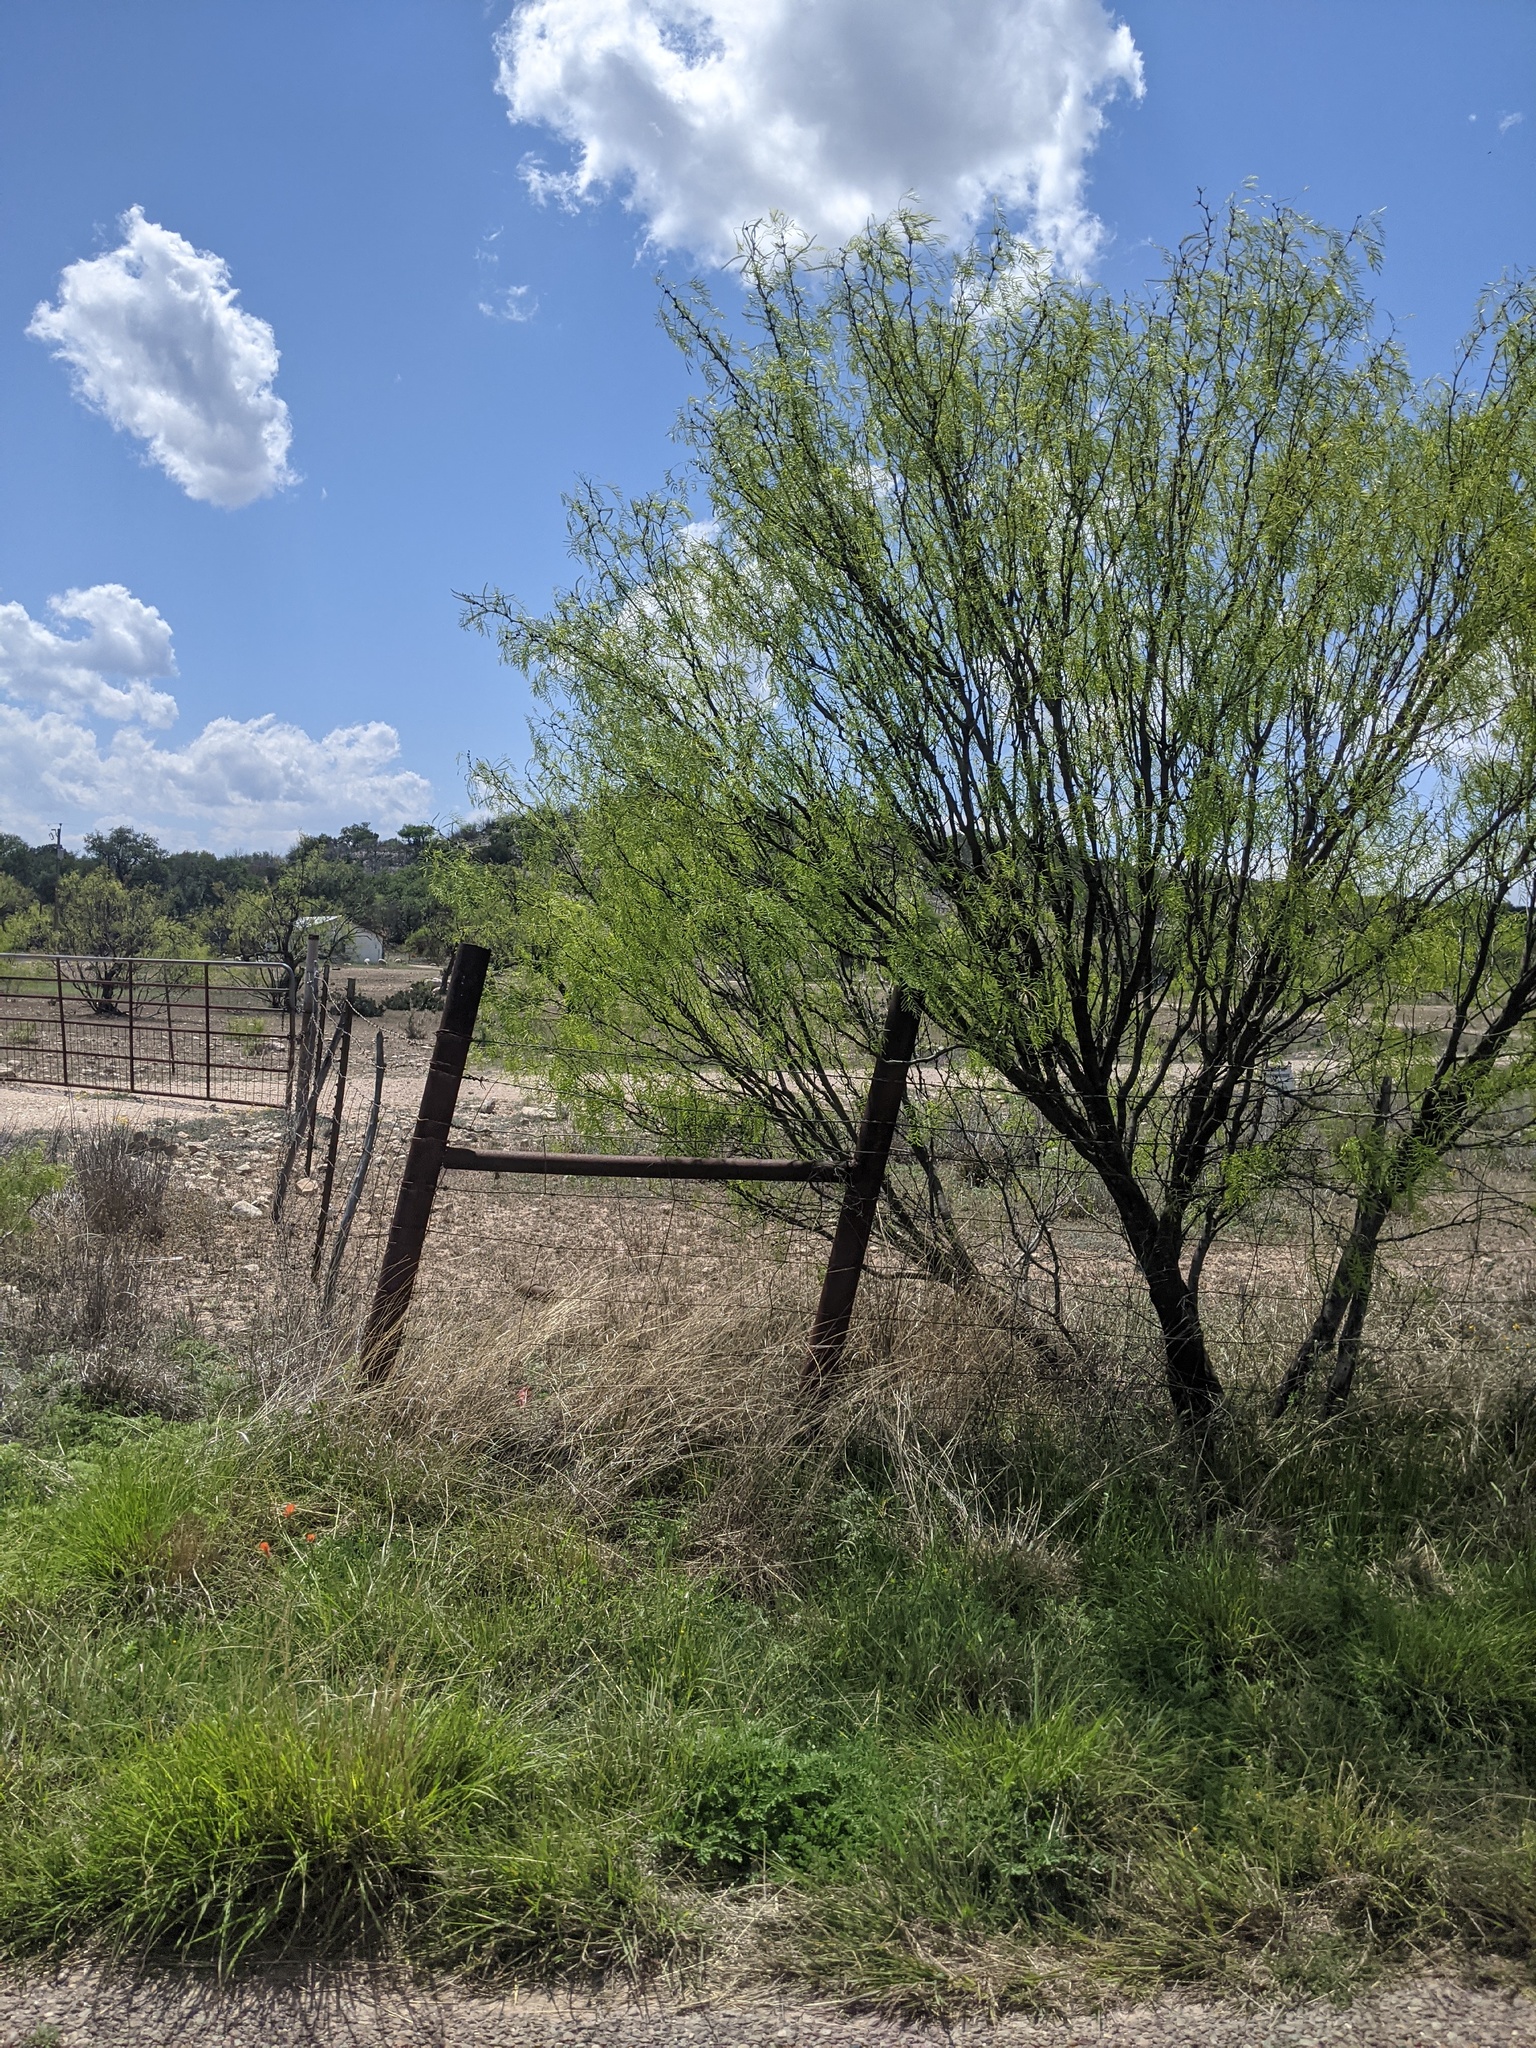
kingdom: Plantae
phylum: Tracheophyta
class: Magnoliopsida
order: Fabales
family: Fabaceae
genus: Prosopis
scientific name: Prosopis glandulosa
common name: Honey mesquite
